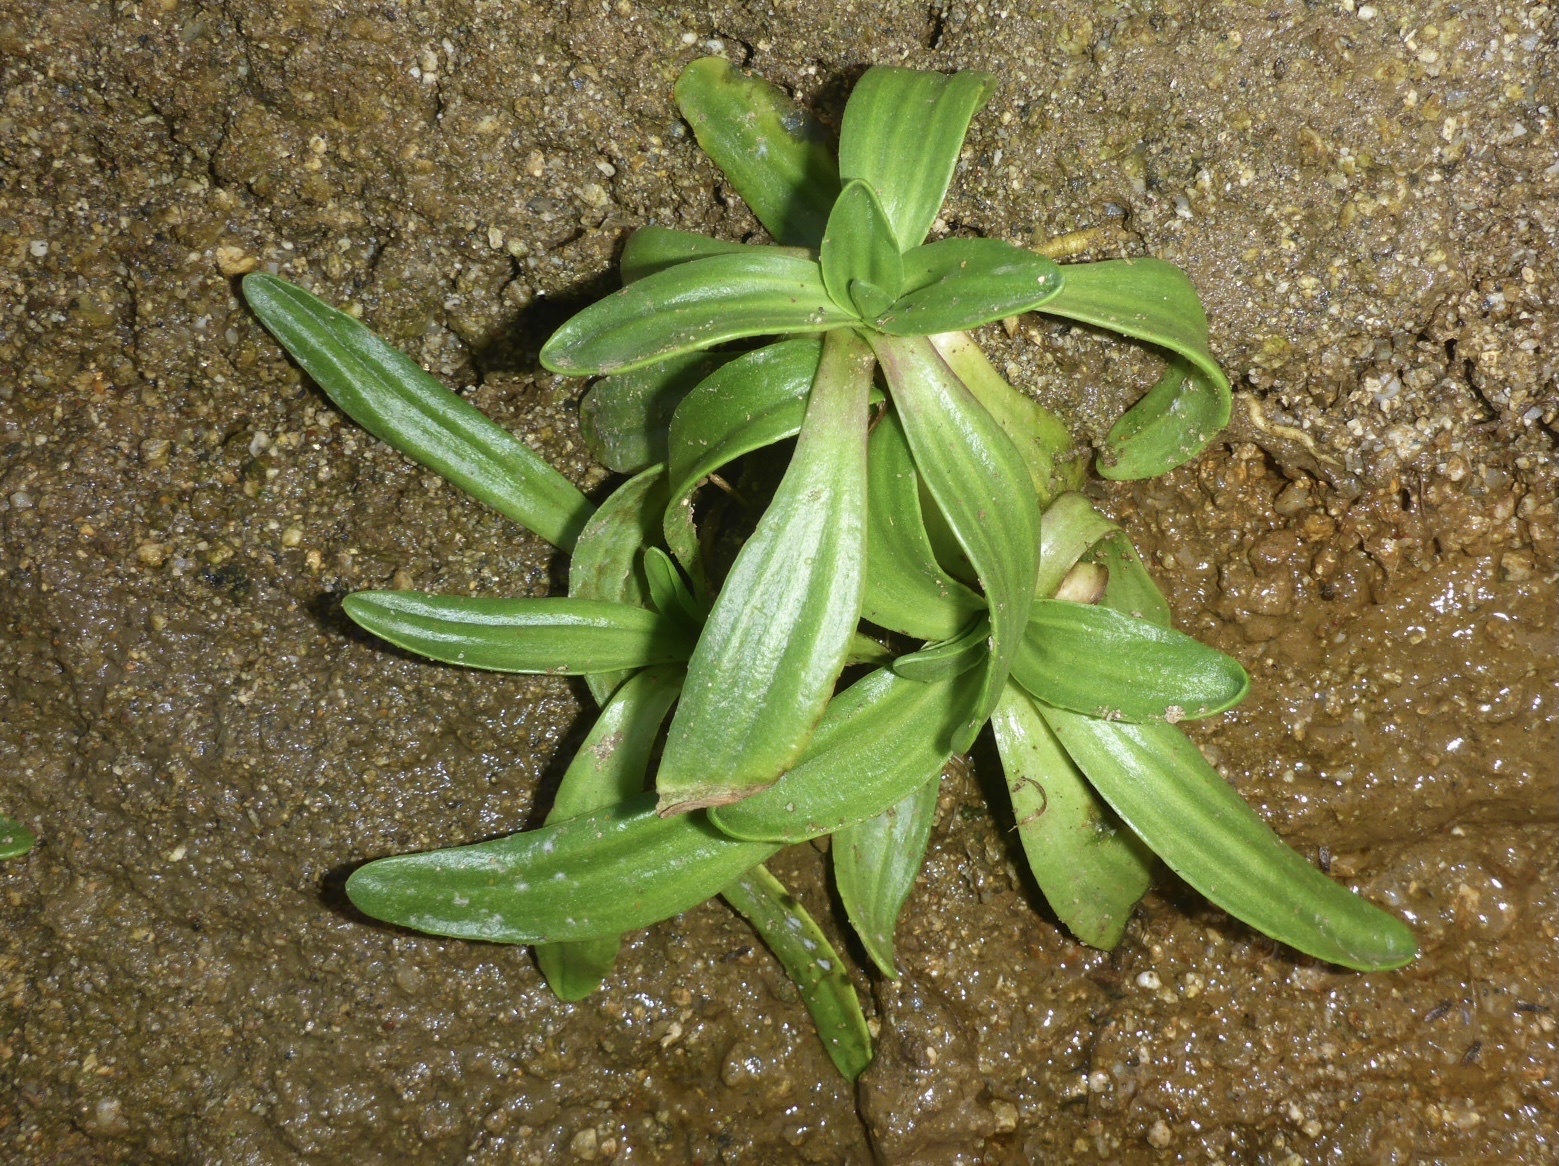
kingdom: Plantae
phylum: Tracheophyta
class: Magnoliopsida
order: Lamiales
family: Plantaginaceae
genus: Plantago
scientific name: Plantago maritima
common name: Sea plantain
